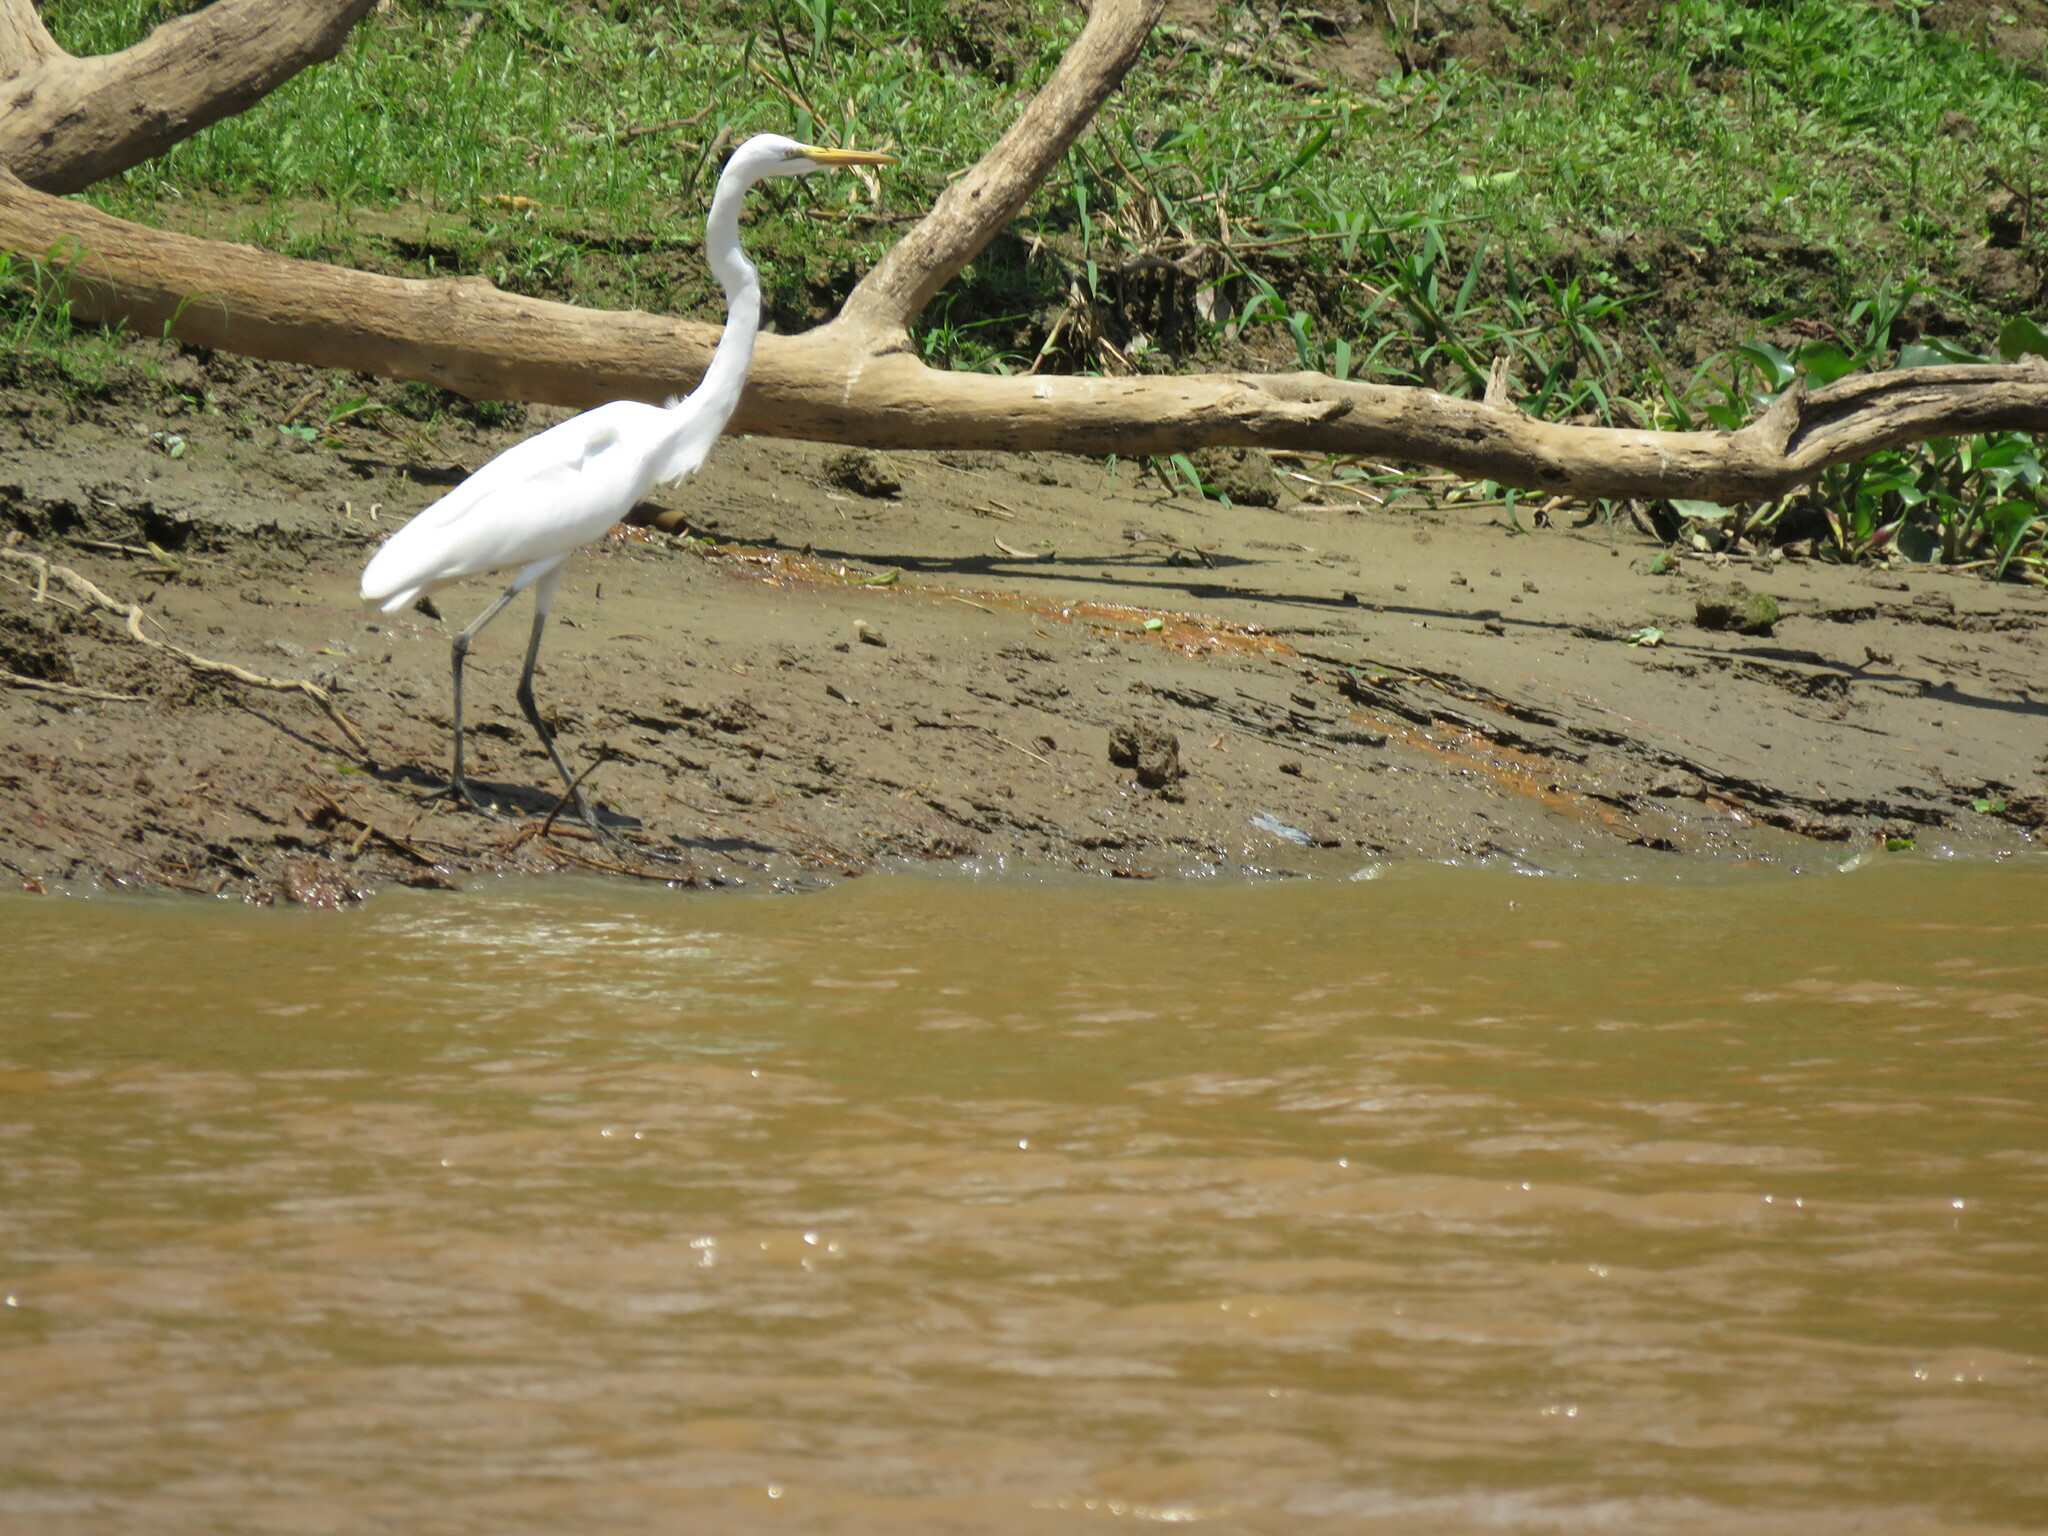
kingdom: Animalia
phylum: Chordata
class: Aves
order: Pelecaniformes
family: Ardeidae
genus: Ardea
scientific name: Ardea alba
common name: Great egret
